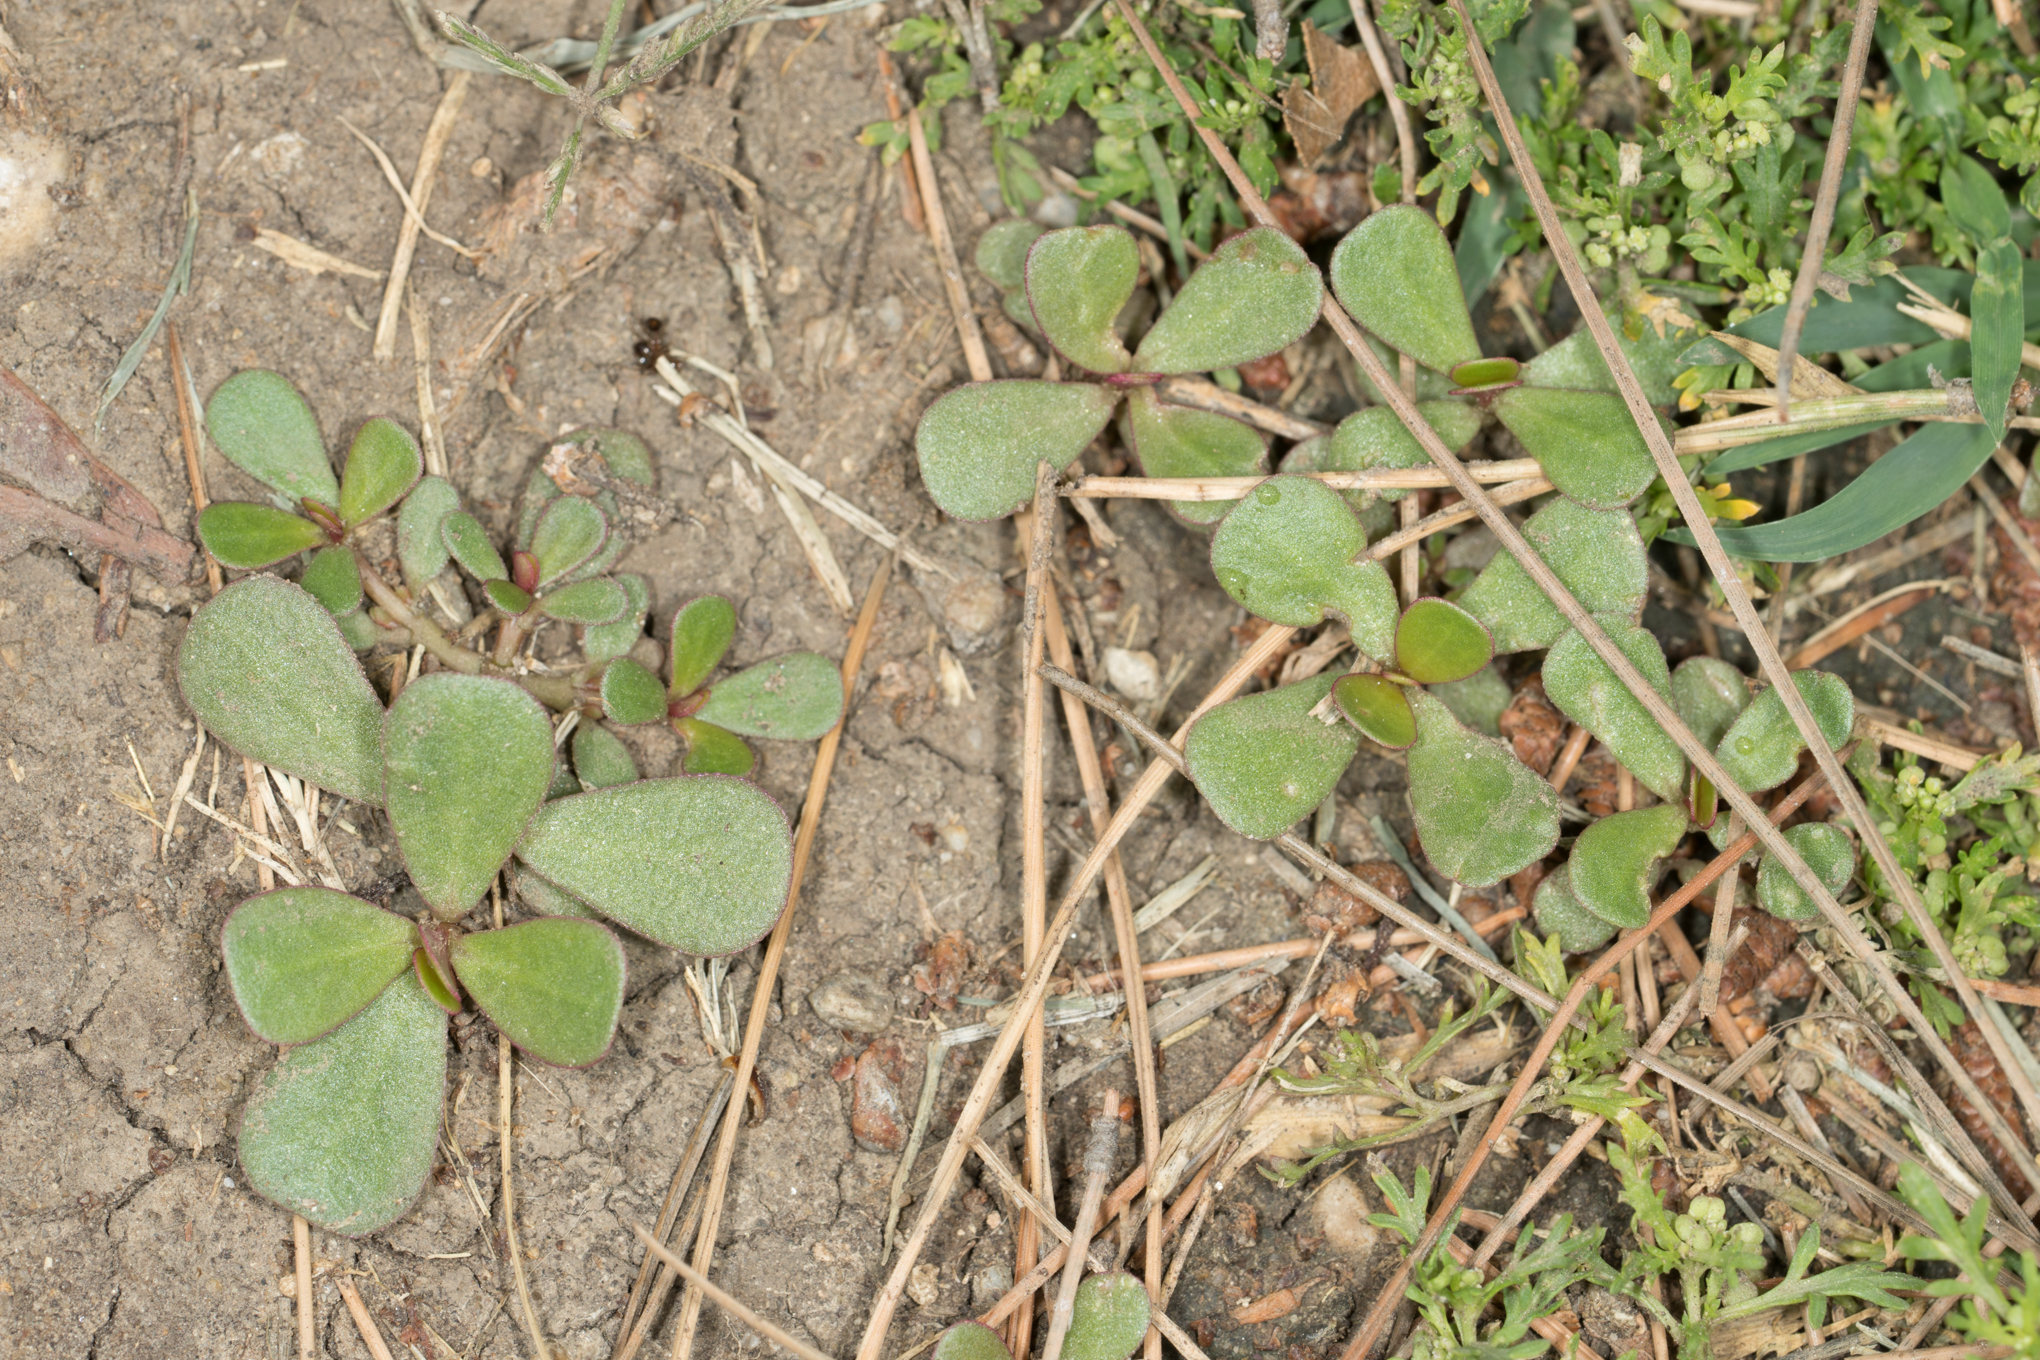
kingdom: Plantae
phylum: Tracheophyta
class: Magnoliopsida
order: Caryophyllales
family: Portulacaceae
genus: Portulaca
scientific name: Portulaca oleracea
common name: Common purslane
